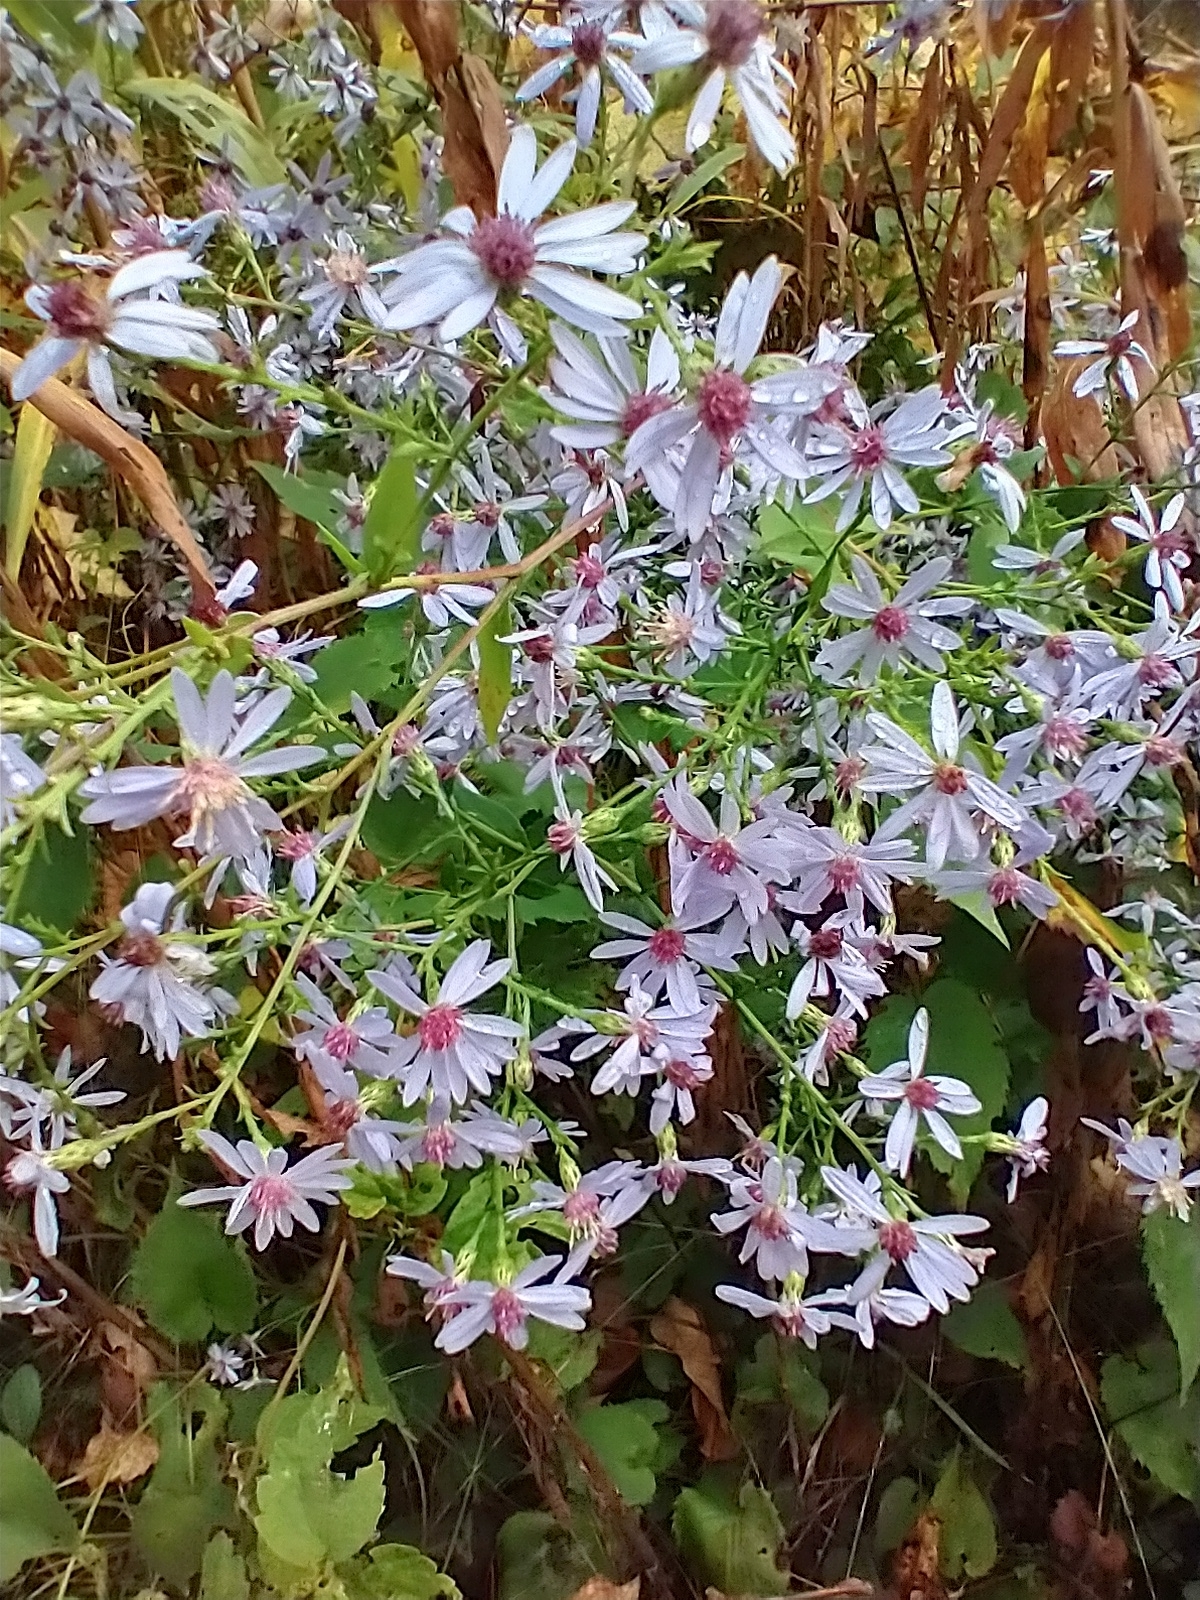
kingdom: Plantae
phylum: Tracheophyta
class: Magnoliopsida
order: Asterales
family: Asteraceae
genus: Symphyotrichum
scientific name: Symphyotrichum cordifolium
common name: Beeweed
